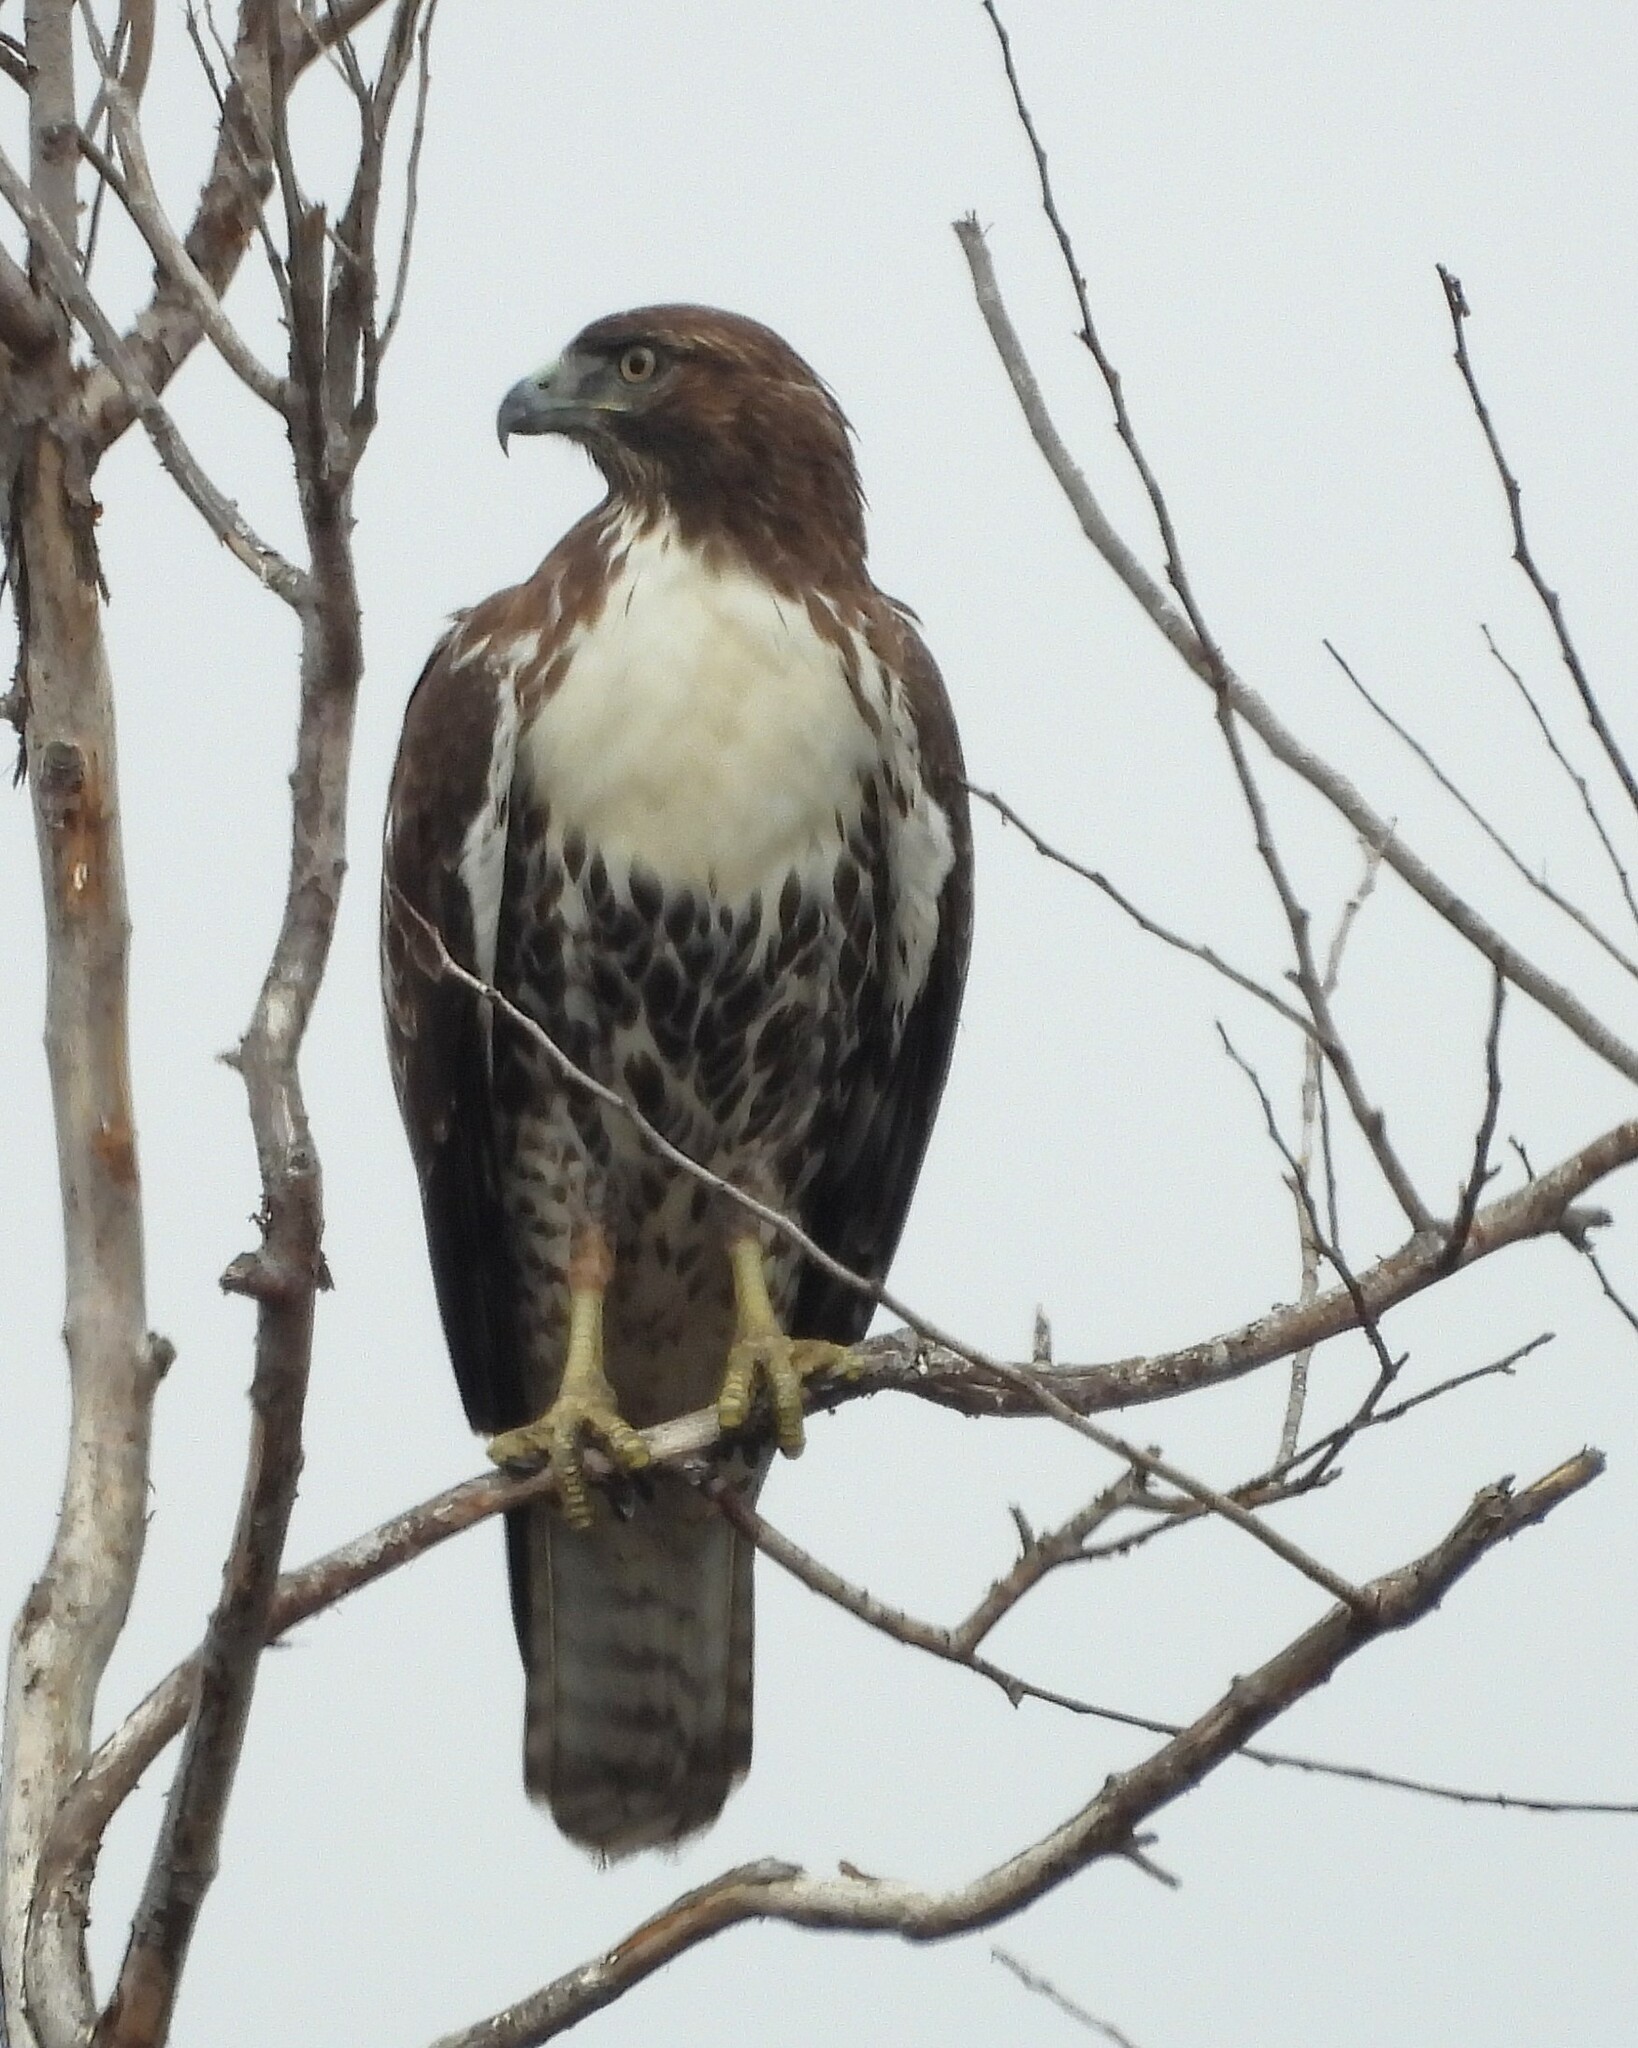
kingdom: Animalia
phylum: Chordata
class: Aves
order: Accipitriformes
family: Accipitridae
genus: Buteo
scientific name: Buteo jamaicensis
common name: Red-tailed hawk
